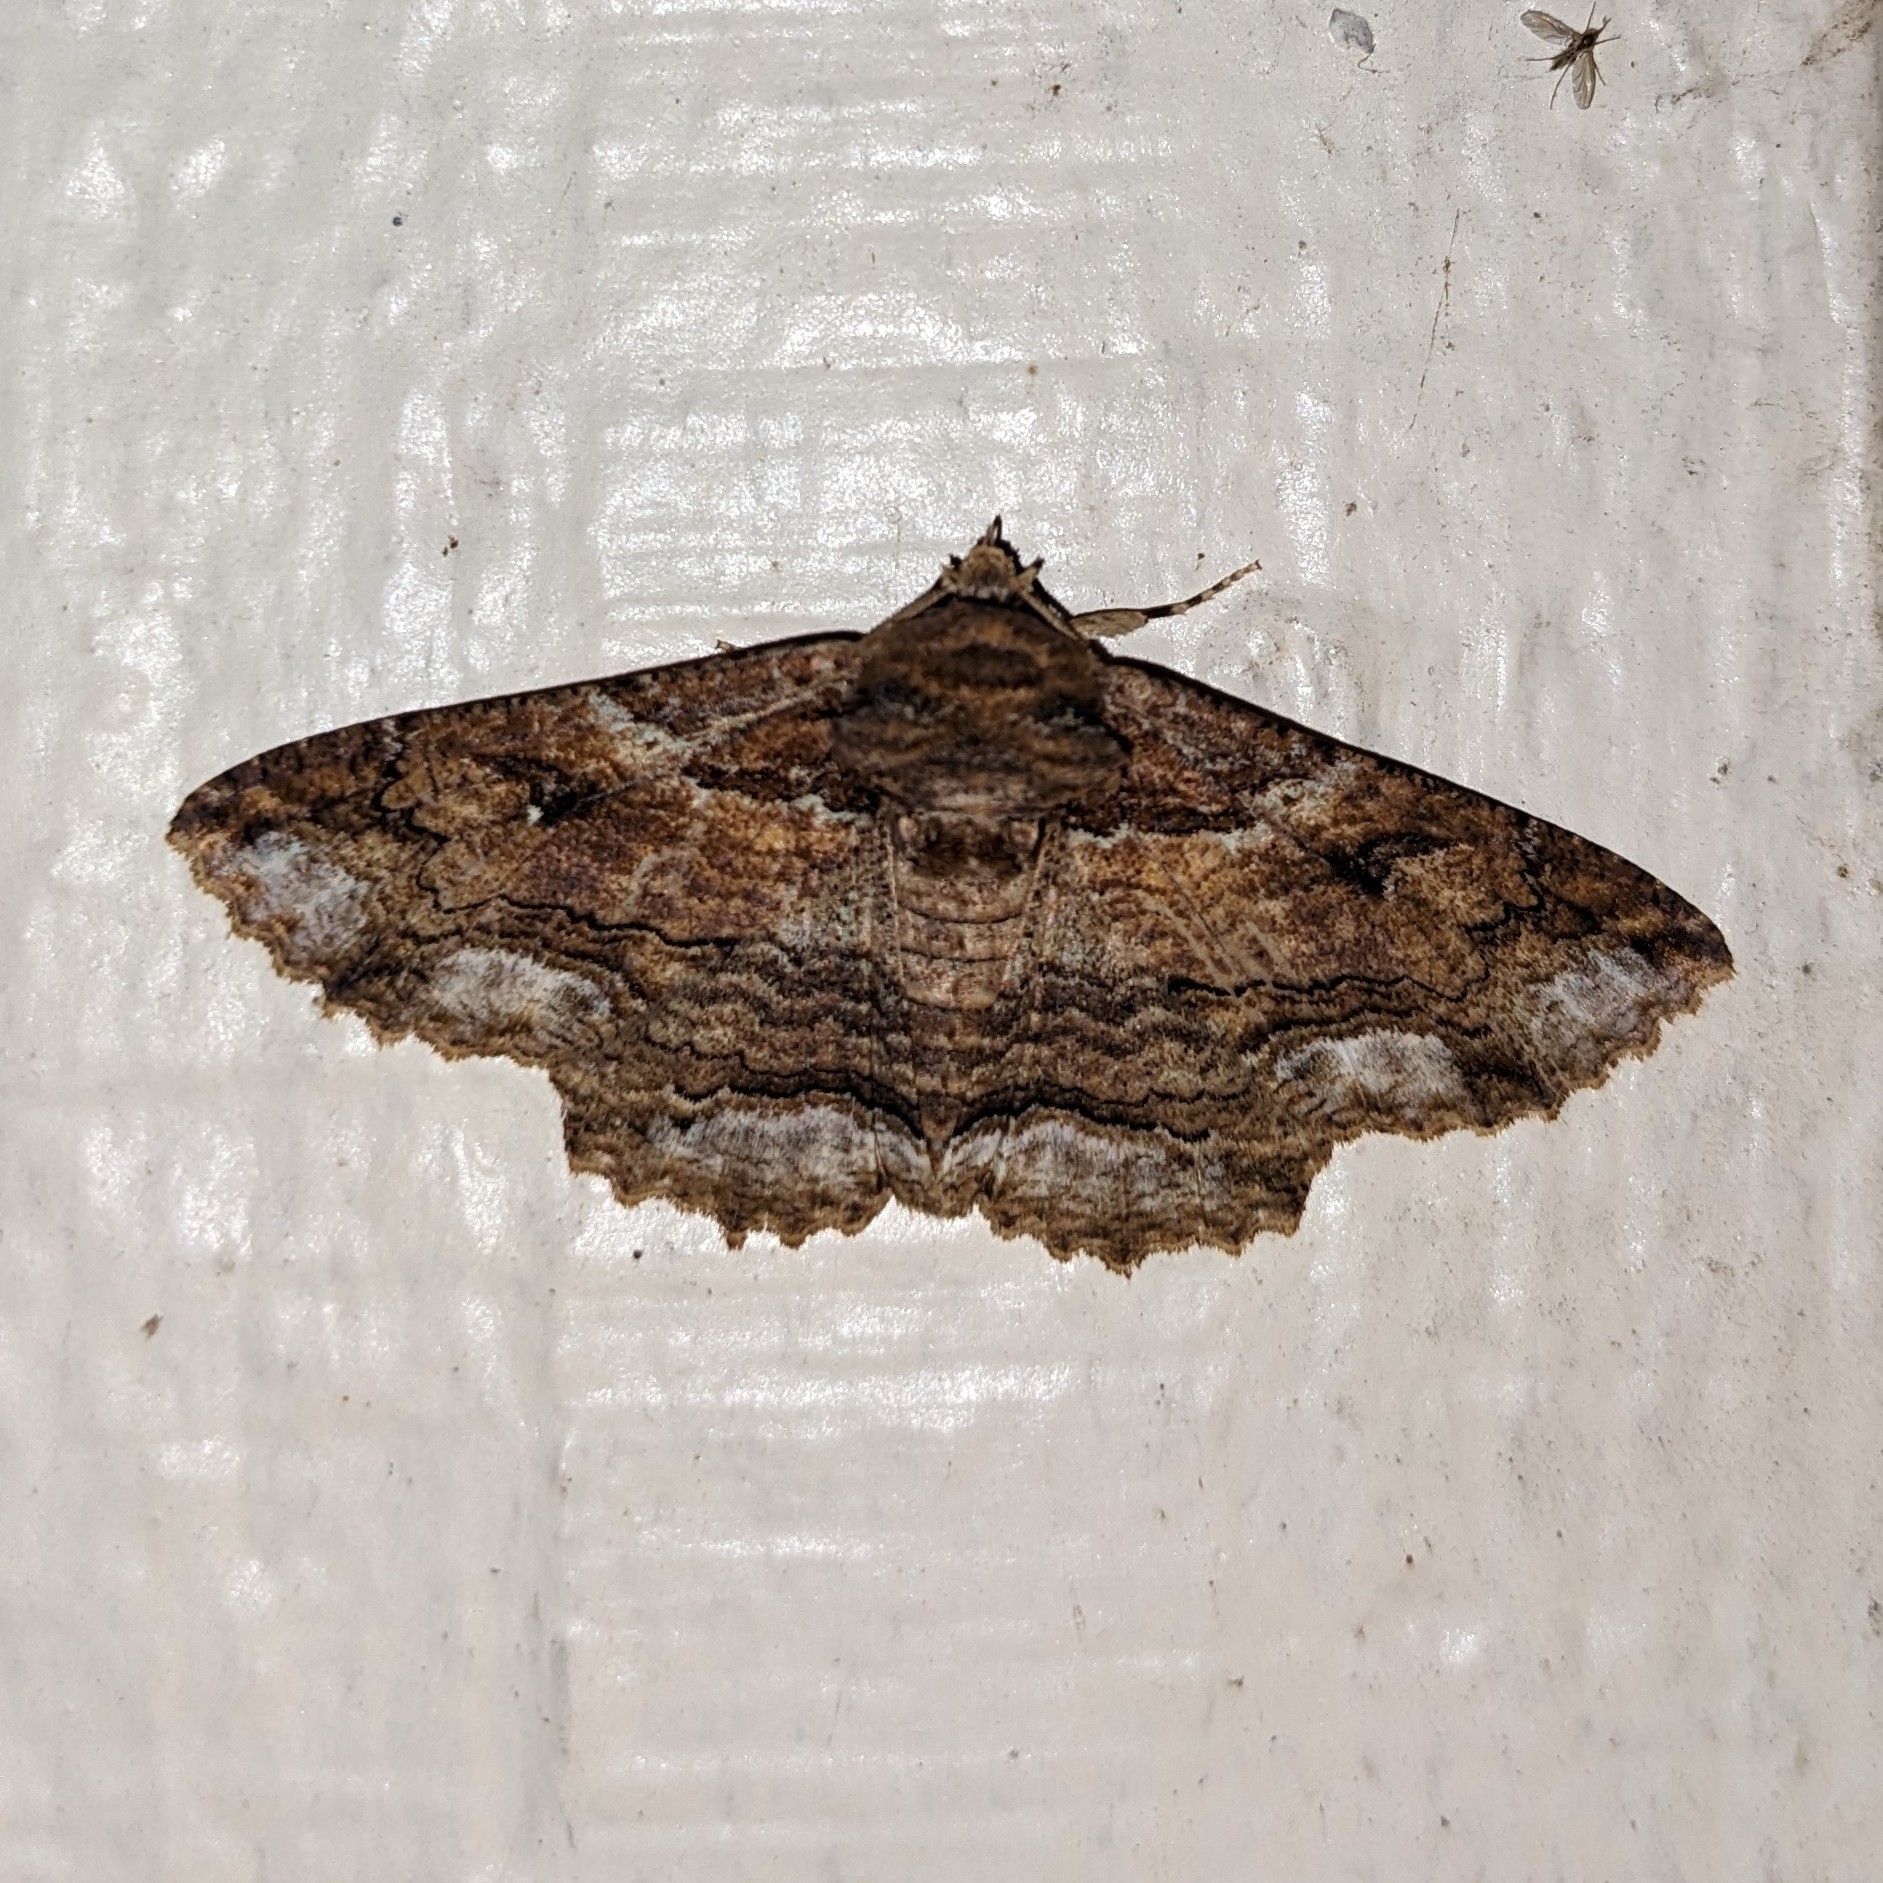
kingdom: Animalia
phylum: Arthropoda
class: Insecta
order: Lepidoptera
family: Erebidae
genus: Zale
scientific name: Zale lunata
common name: Lunate zale moth
